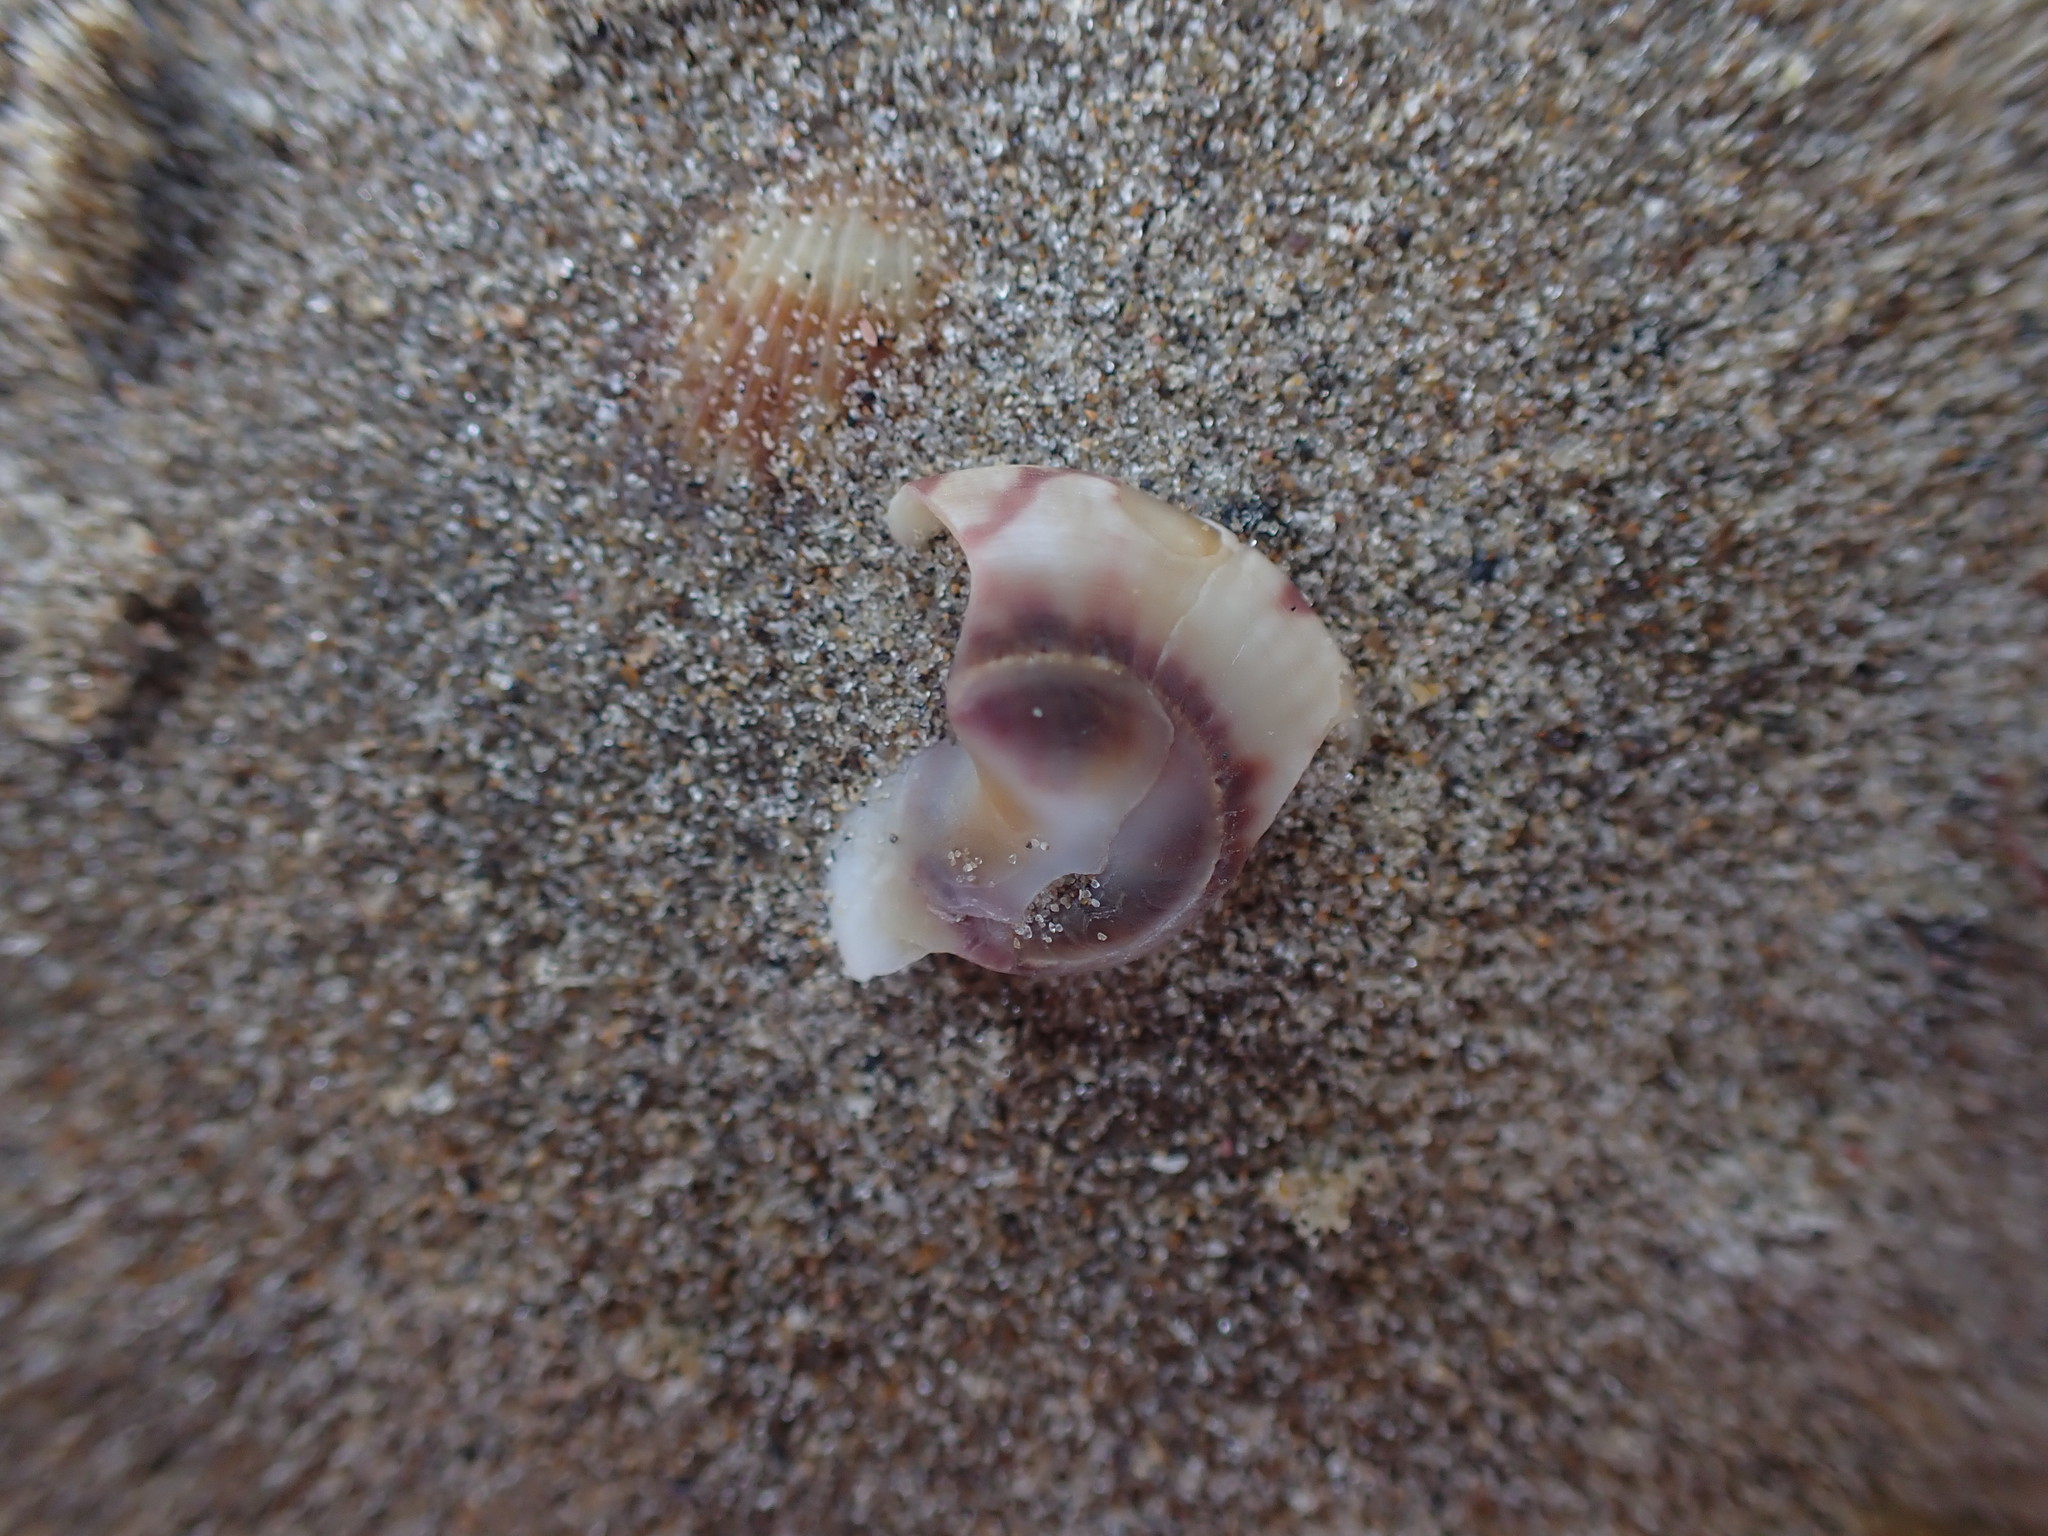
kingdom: Animalia
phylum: Mollusca
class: Gastropoda
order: Trochida
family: Trochidae
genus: Zethalia
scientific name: Zethalia zelandica
